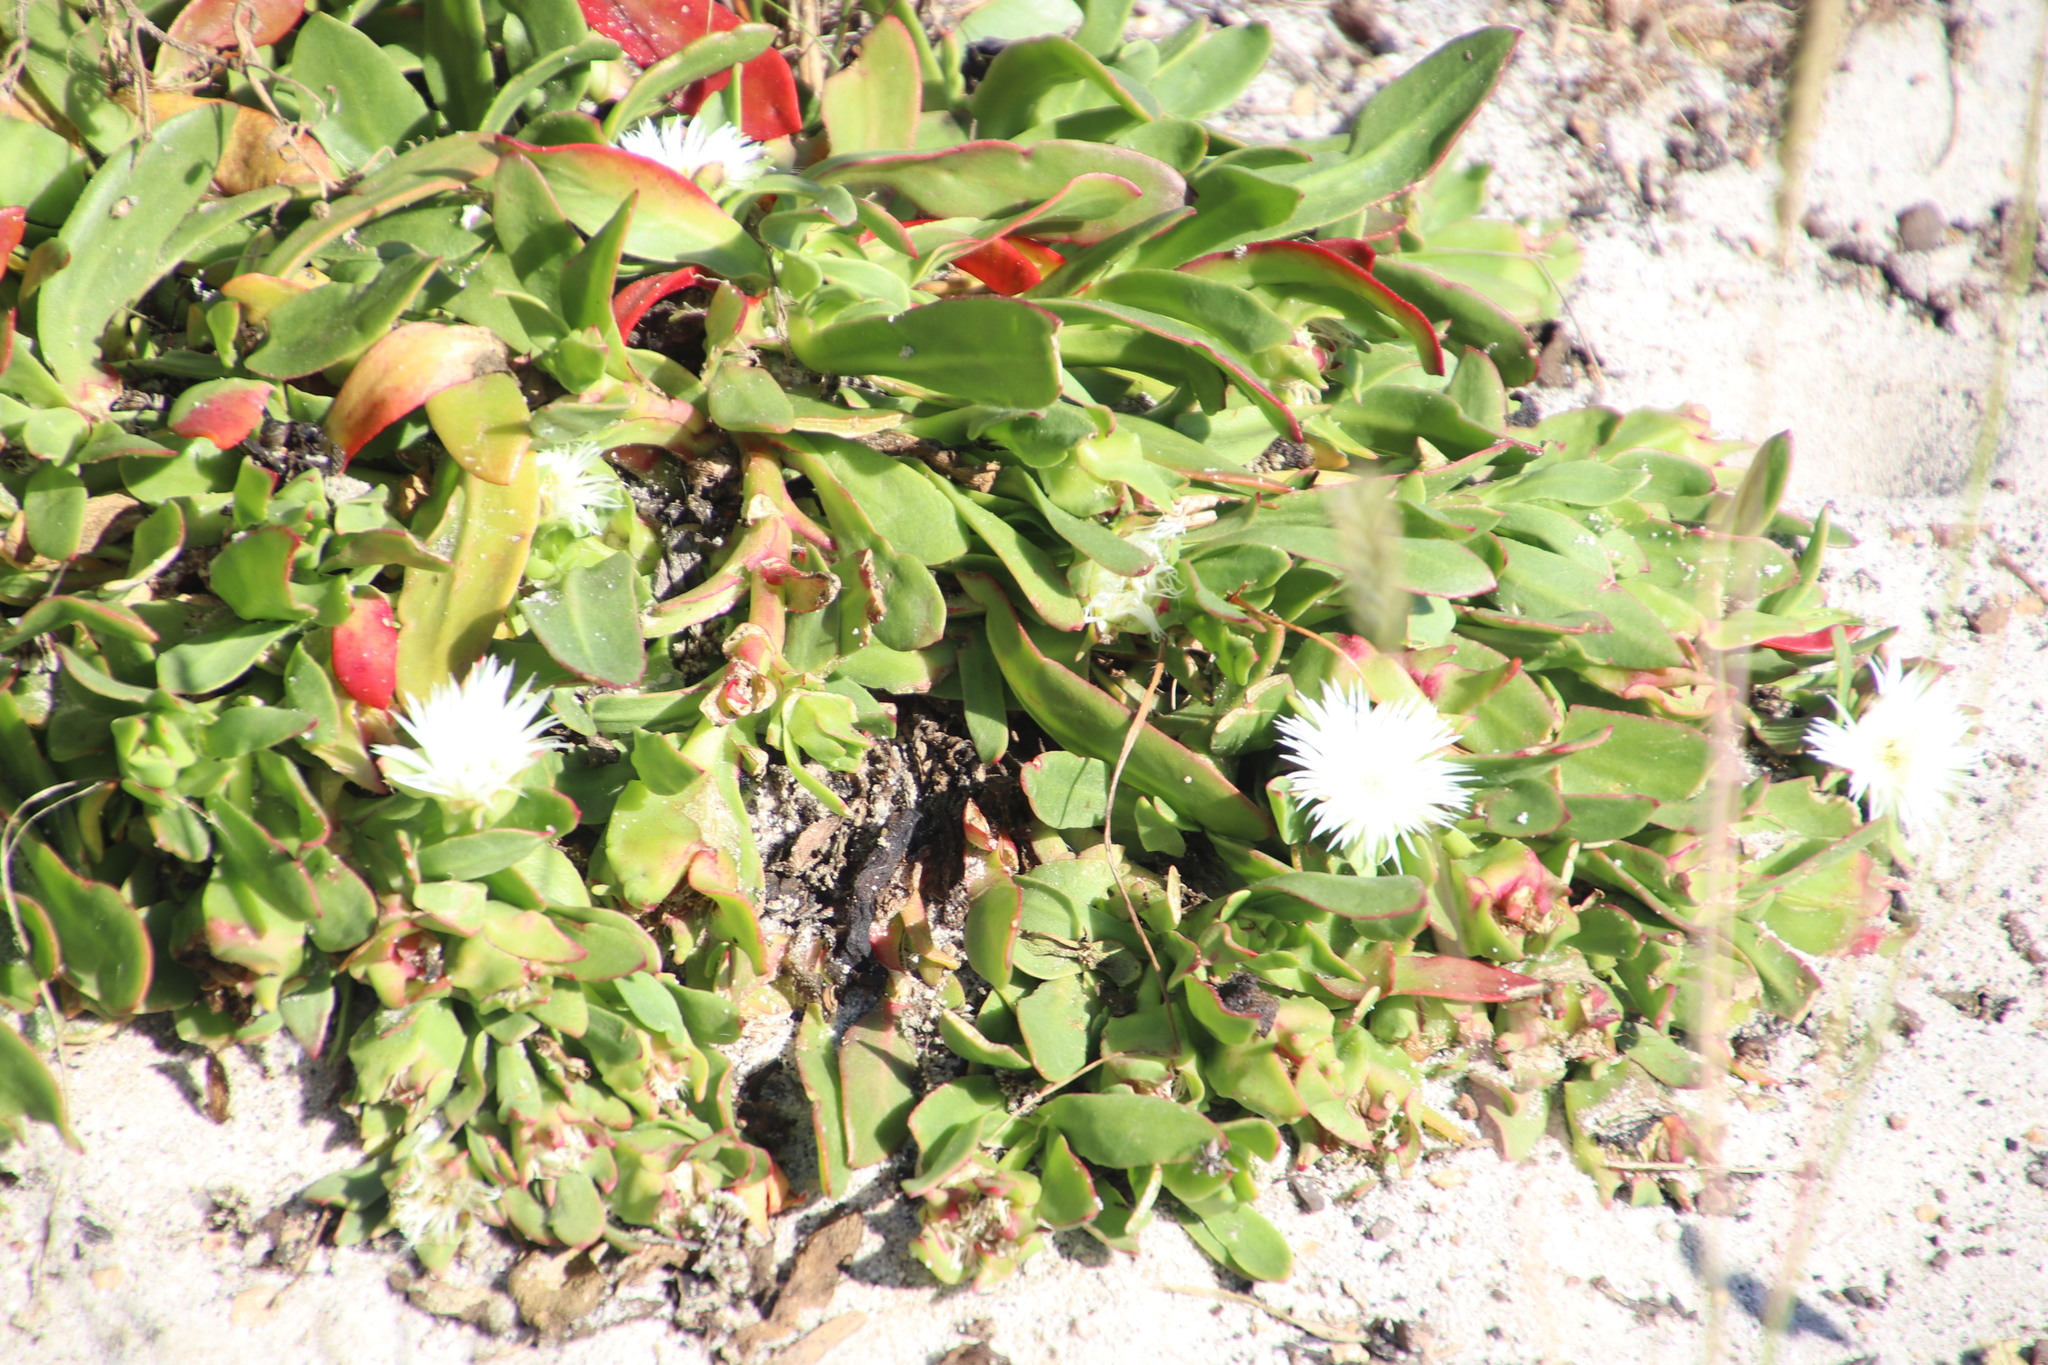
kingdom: Plantae
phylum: Tracheophyta
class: Magnoliopsida
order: Caryophyllales
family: Aizoaceae
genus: Skiatophytum
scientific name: Skiatophytum tripolium
